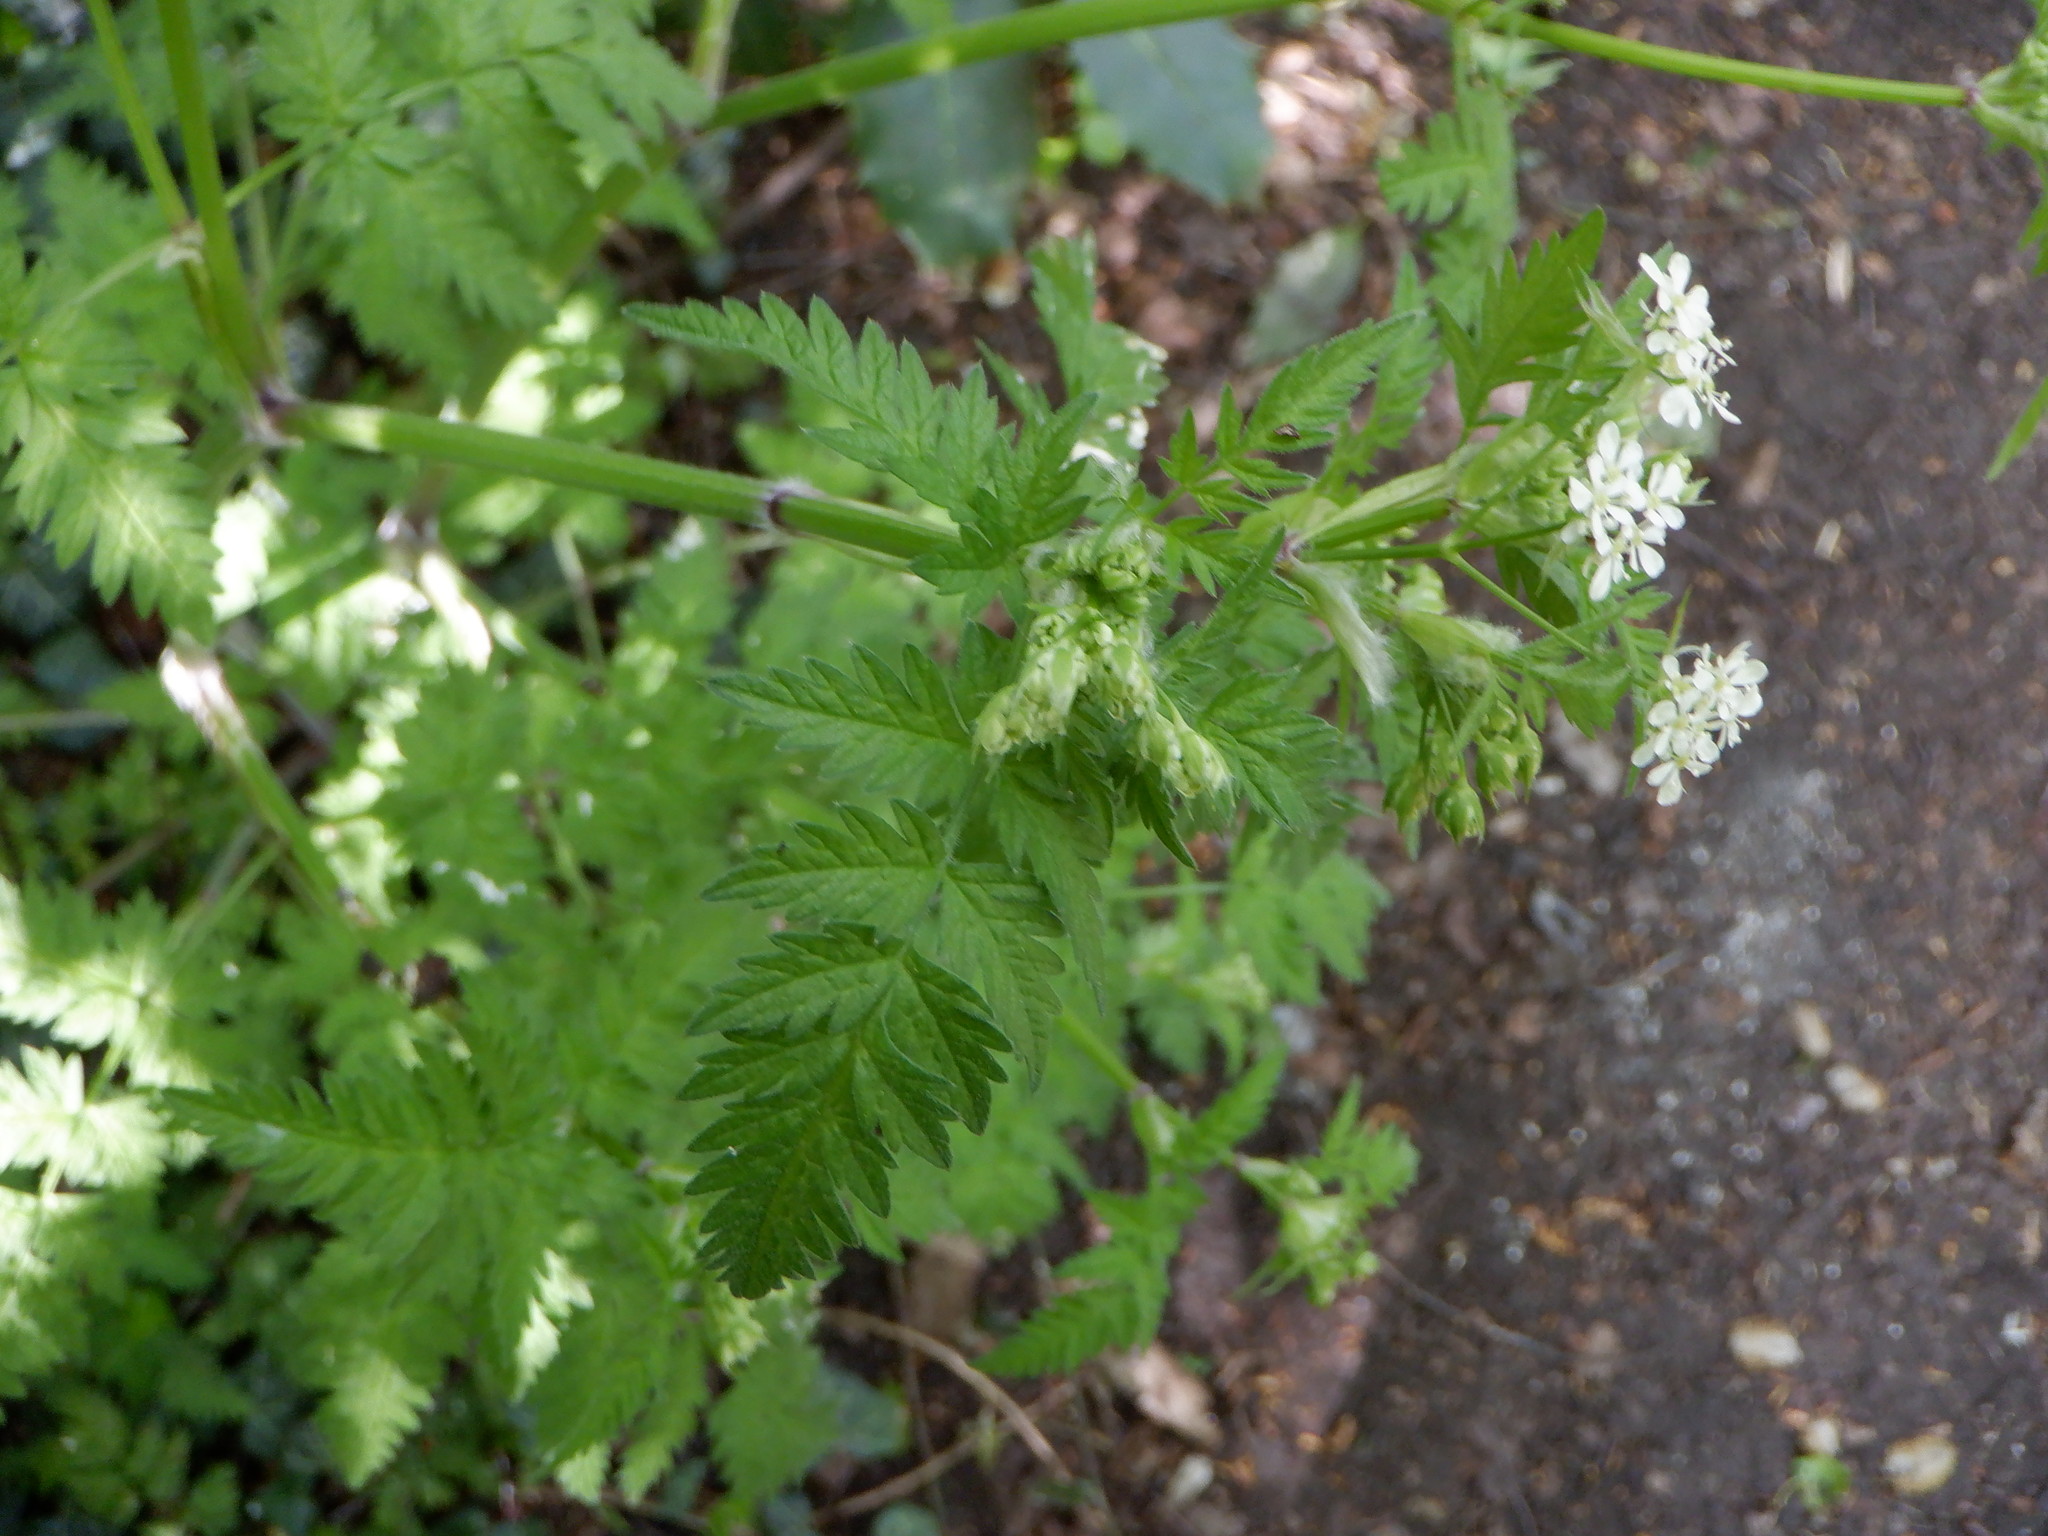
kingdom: Plantae
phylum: Tracheophyta
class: Magnoliopsida
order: Apiales
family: Apiaceae
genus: Anthriscus
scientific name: Anthriscus sylvestris
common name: Cow parsley
